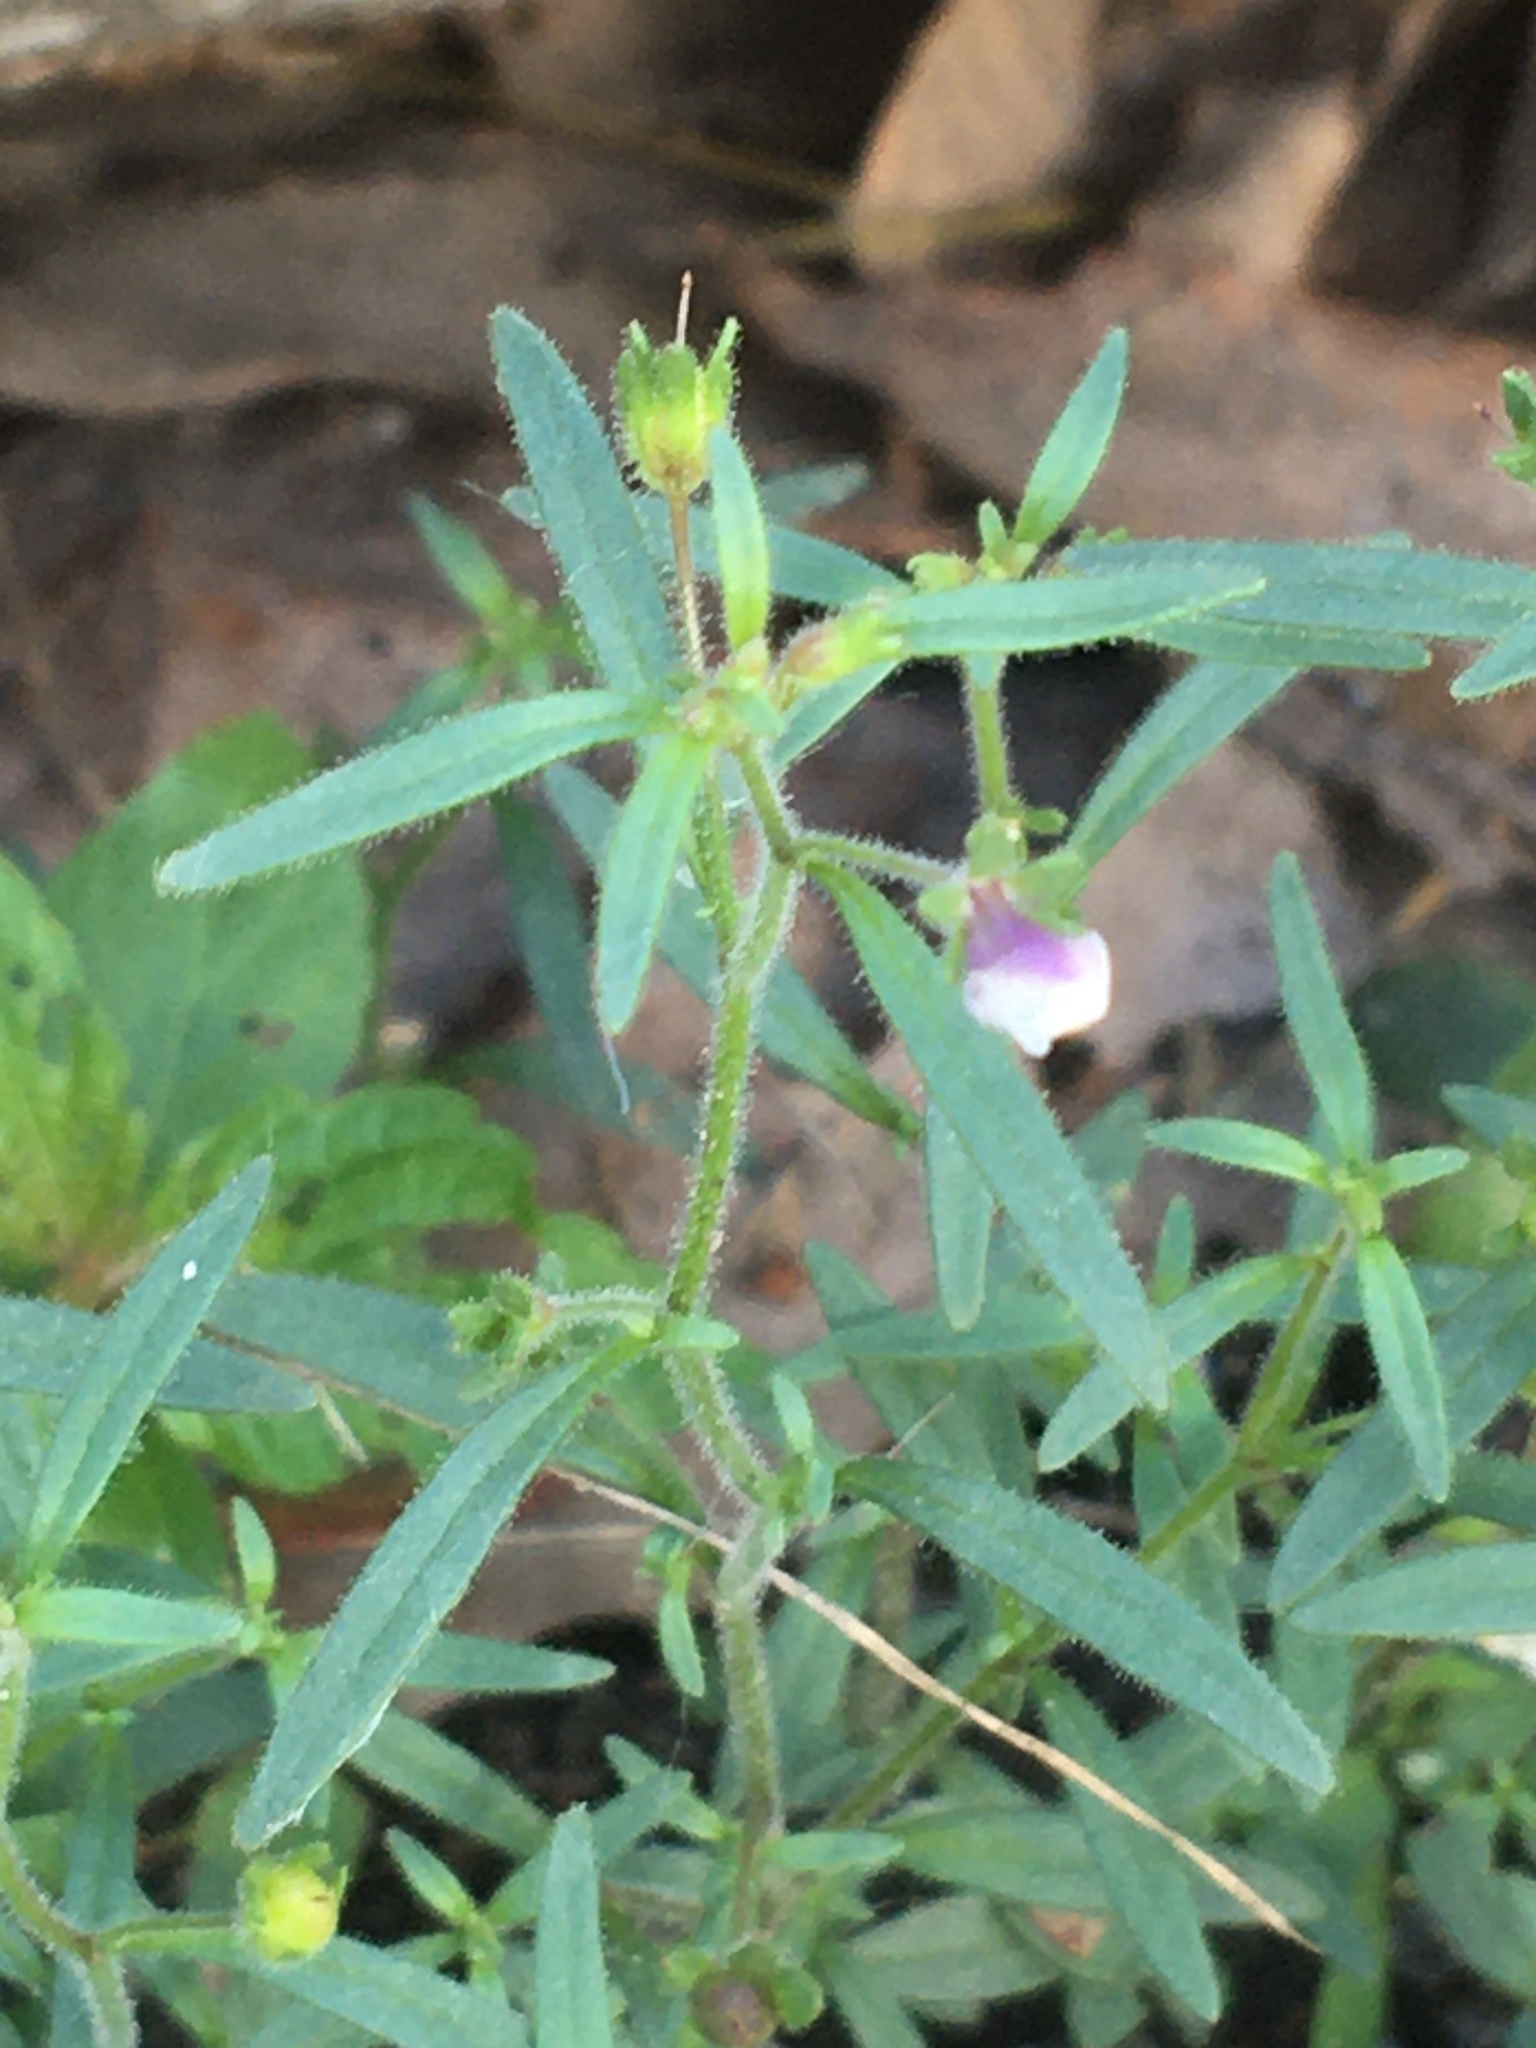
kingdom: Plantae
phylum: Tracheophyta
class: Magnoliopsida
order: Lamiales
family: Plantaginaceae
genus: Chaenorhinum
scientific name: Chaenorhinum minus
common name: Dwarf snapdragon
